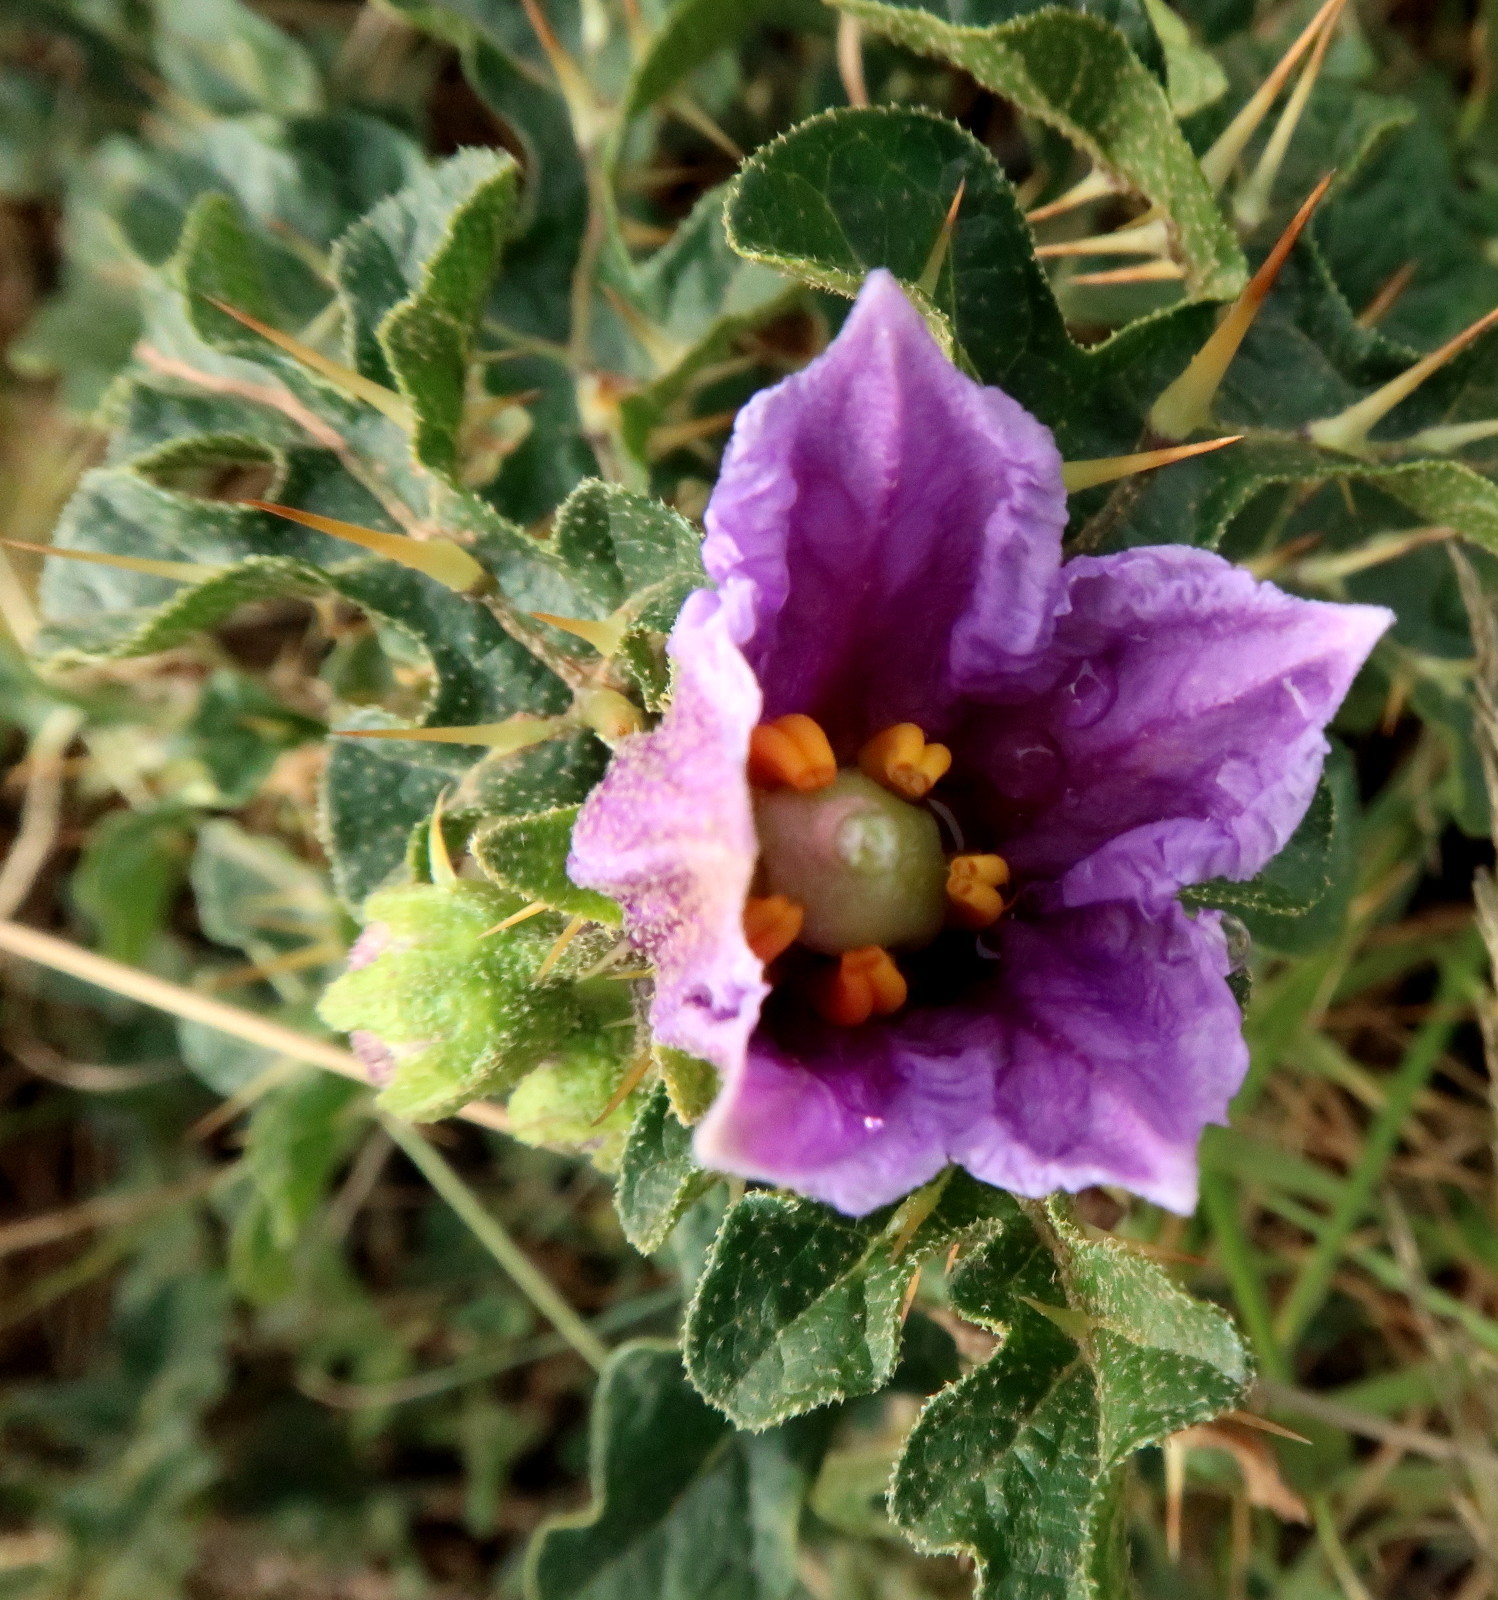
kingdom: Plantae
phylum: Tracheophyta
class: Magnoliopsida
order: Solanales
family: Solanaceae
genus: Solanum
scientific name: Solanum linnaeanum
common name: Nightshade
